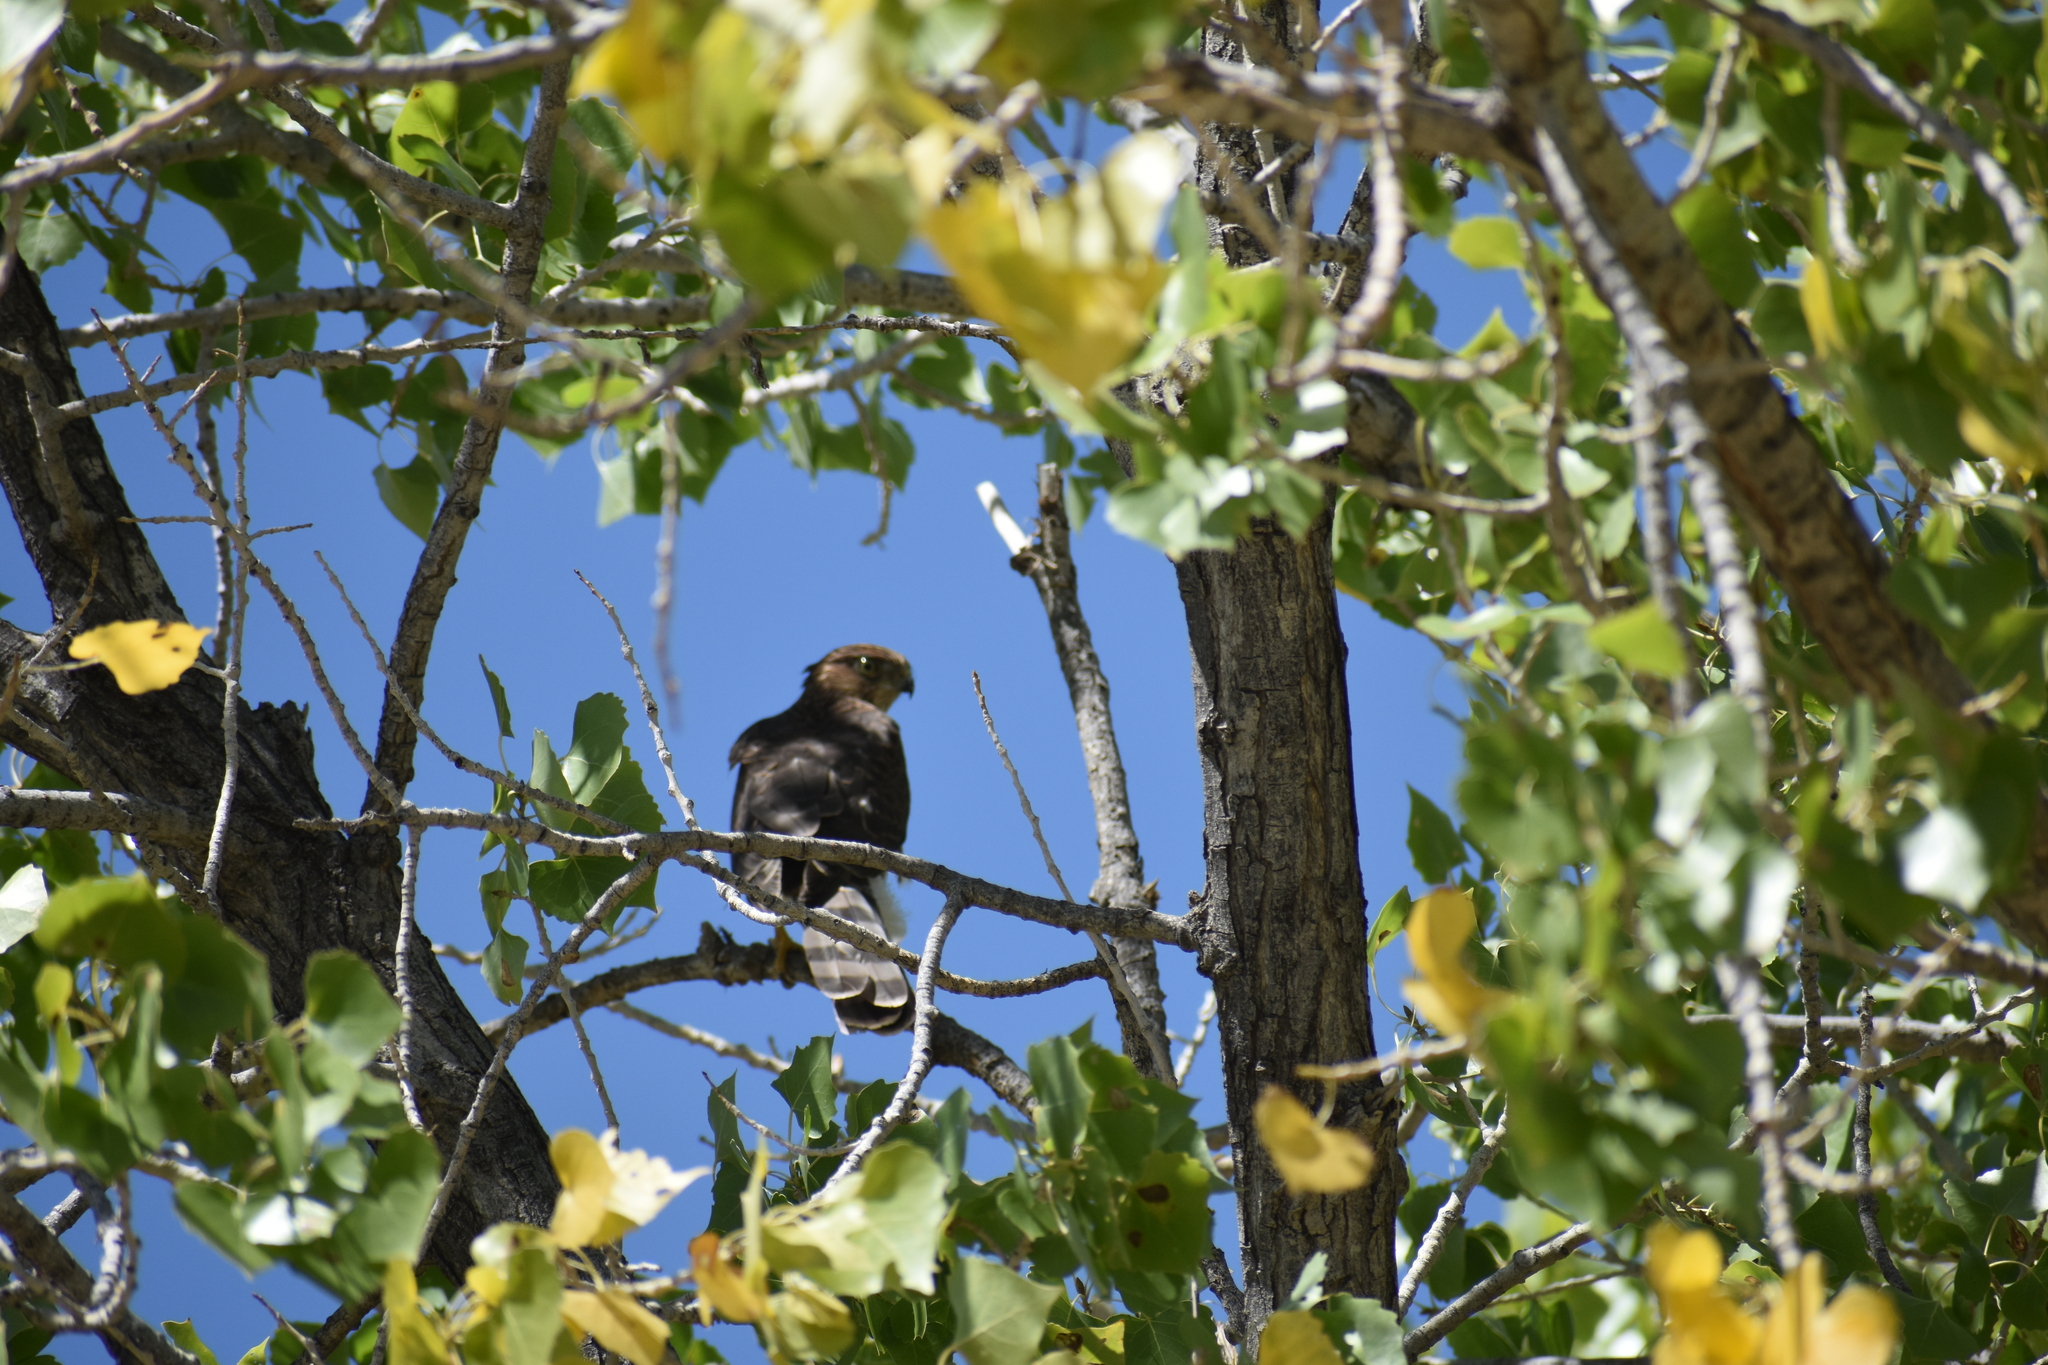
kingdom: Animalia
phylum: Chordata
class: Aves
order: Accipitriformes
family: Accipitridae
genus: Accipiter
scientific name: Accipiter cooperii
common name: Cooper's hawk
